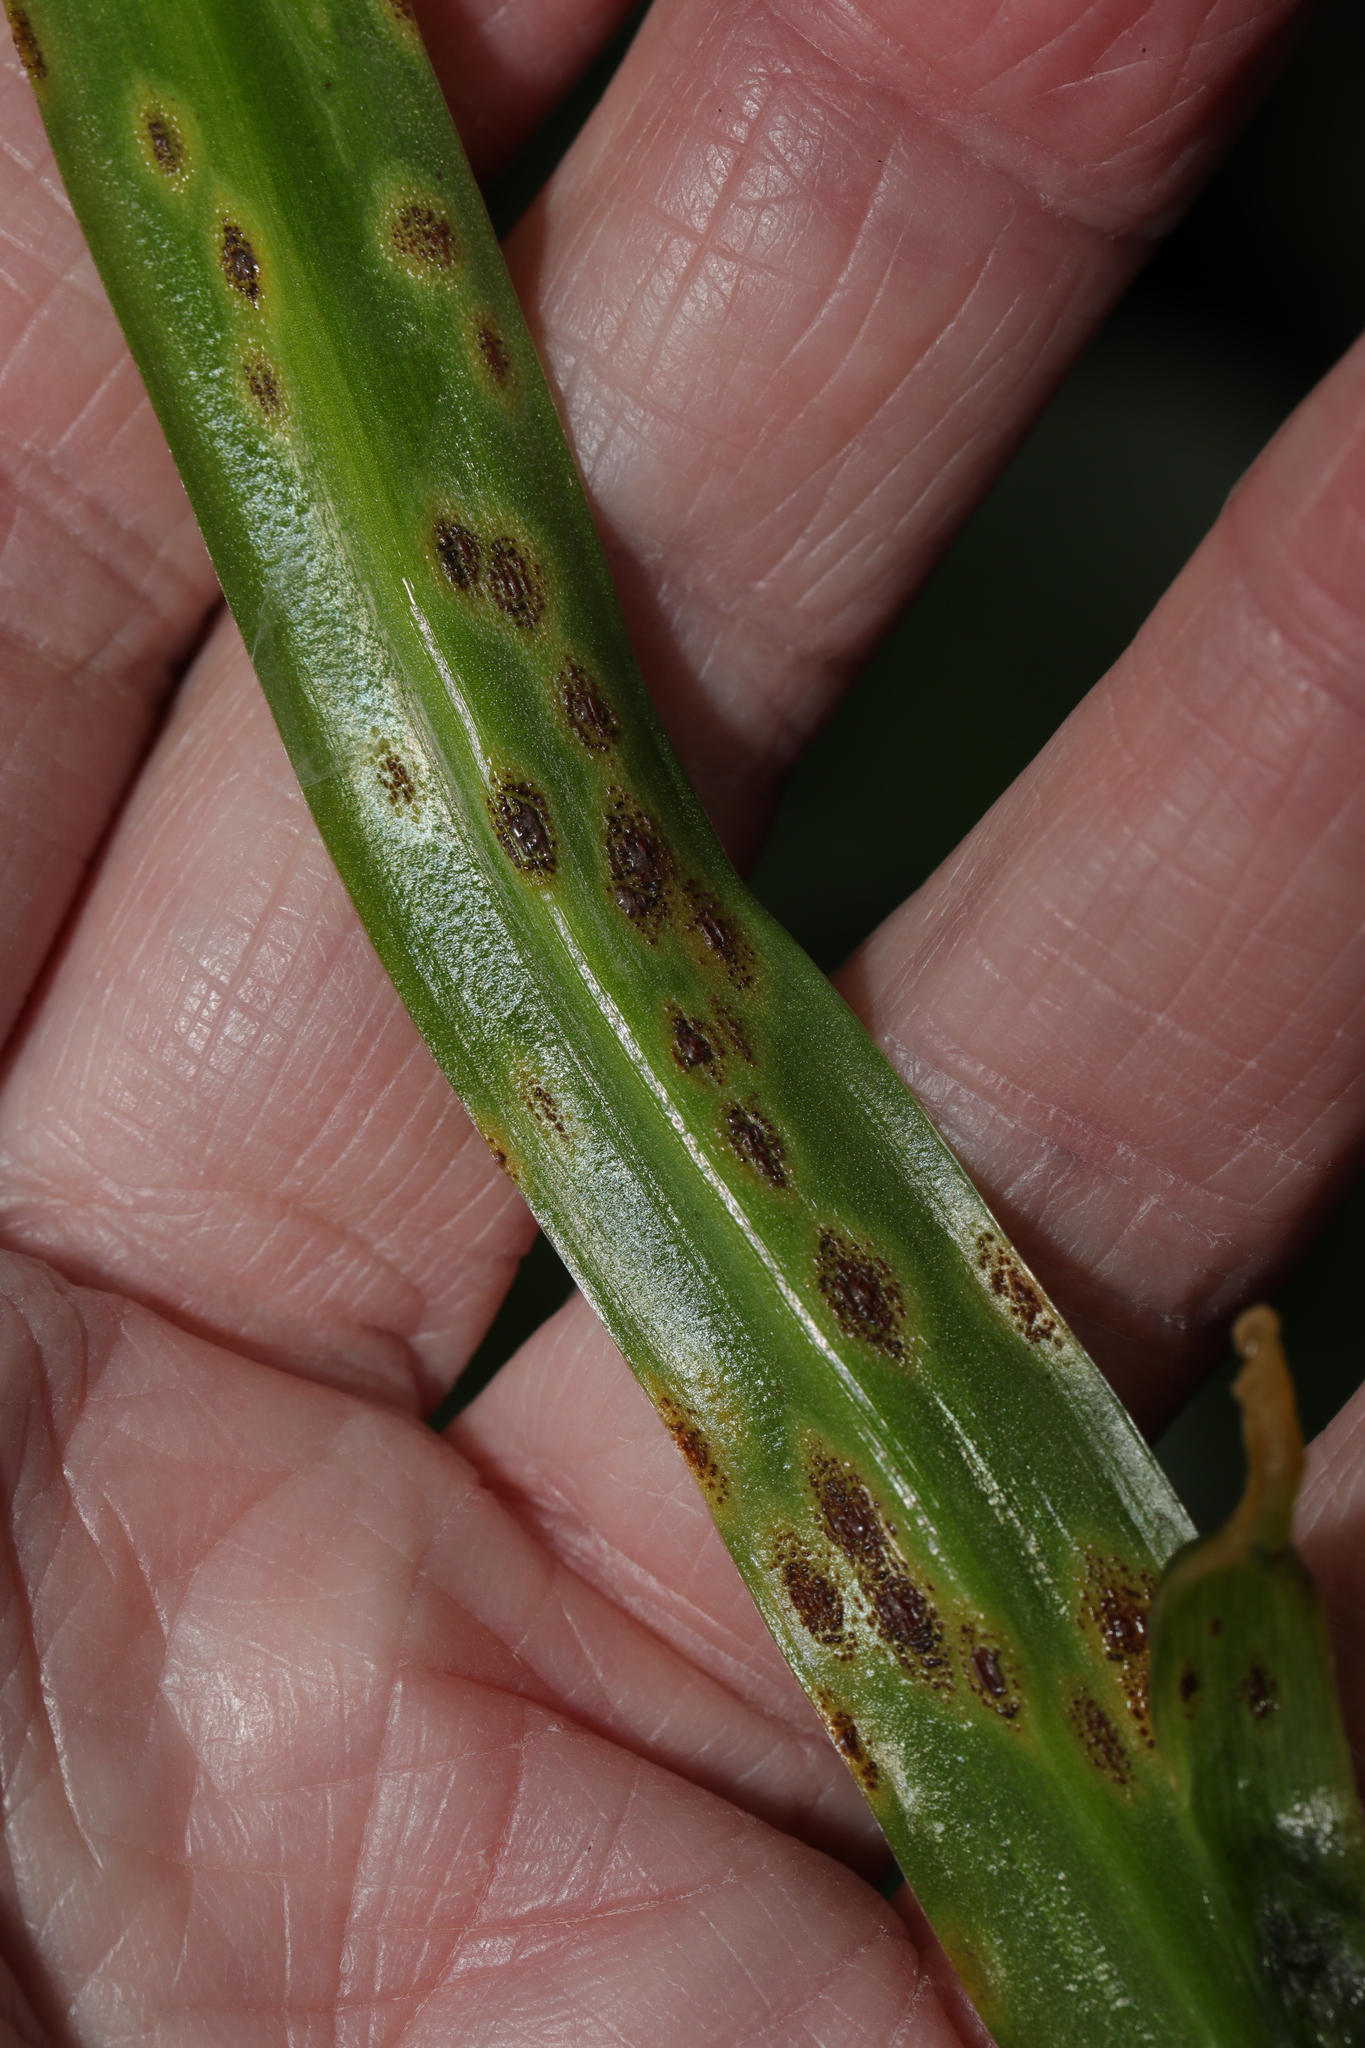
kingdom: Fungi
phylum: Basidiomycota
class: Pucciniomycetes
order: Pucciniales
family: Pucciniaceae
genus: Uromyces
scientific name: Uromyces hyacinthi
